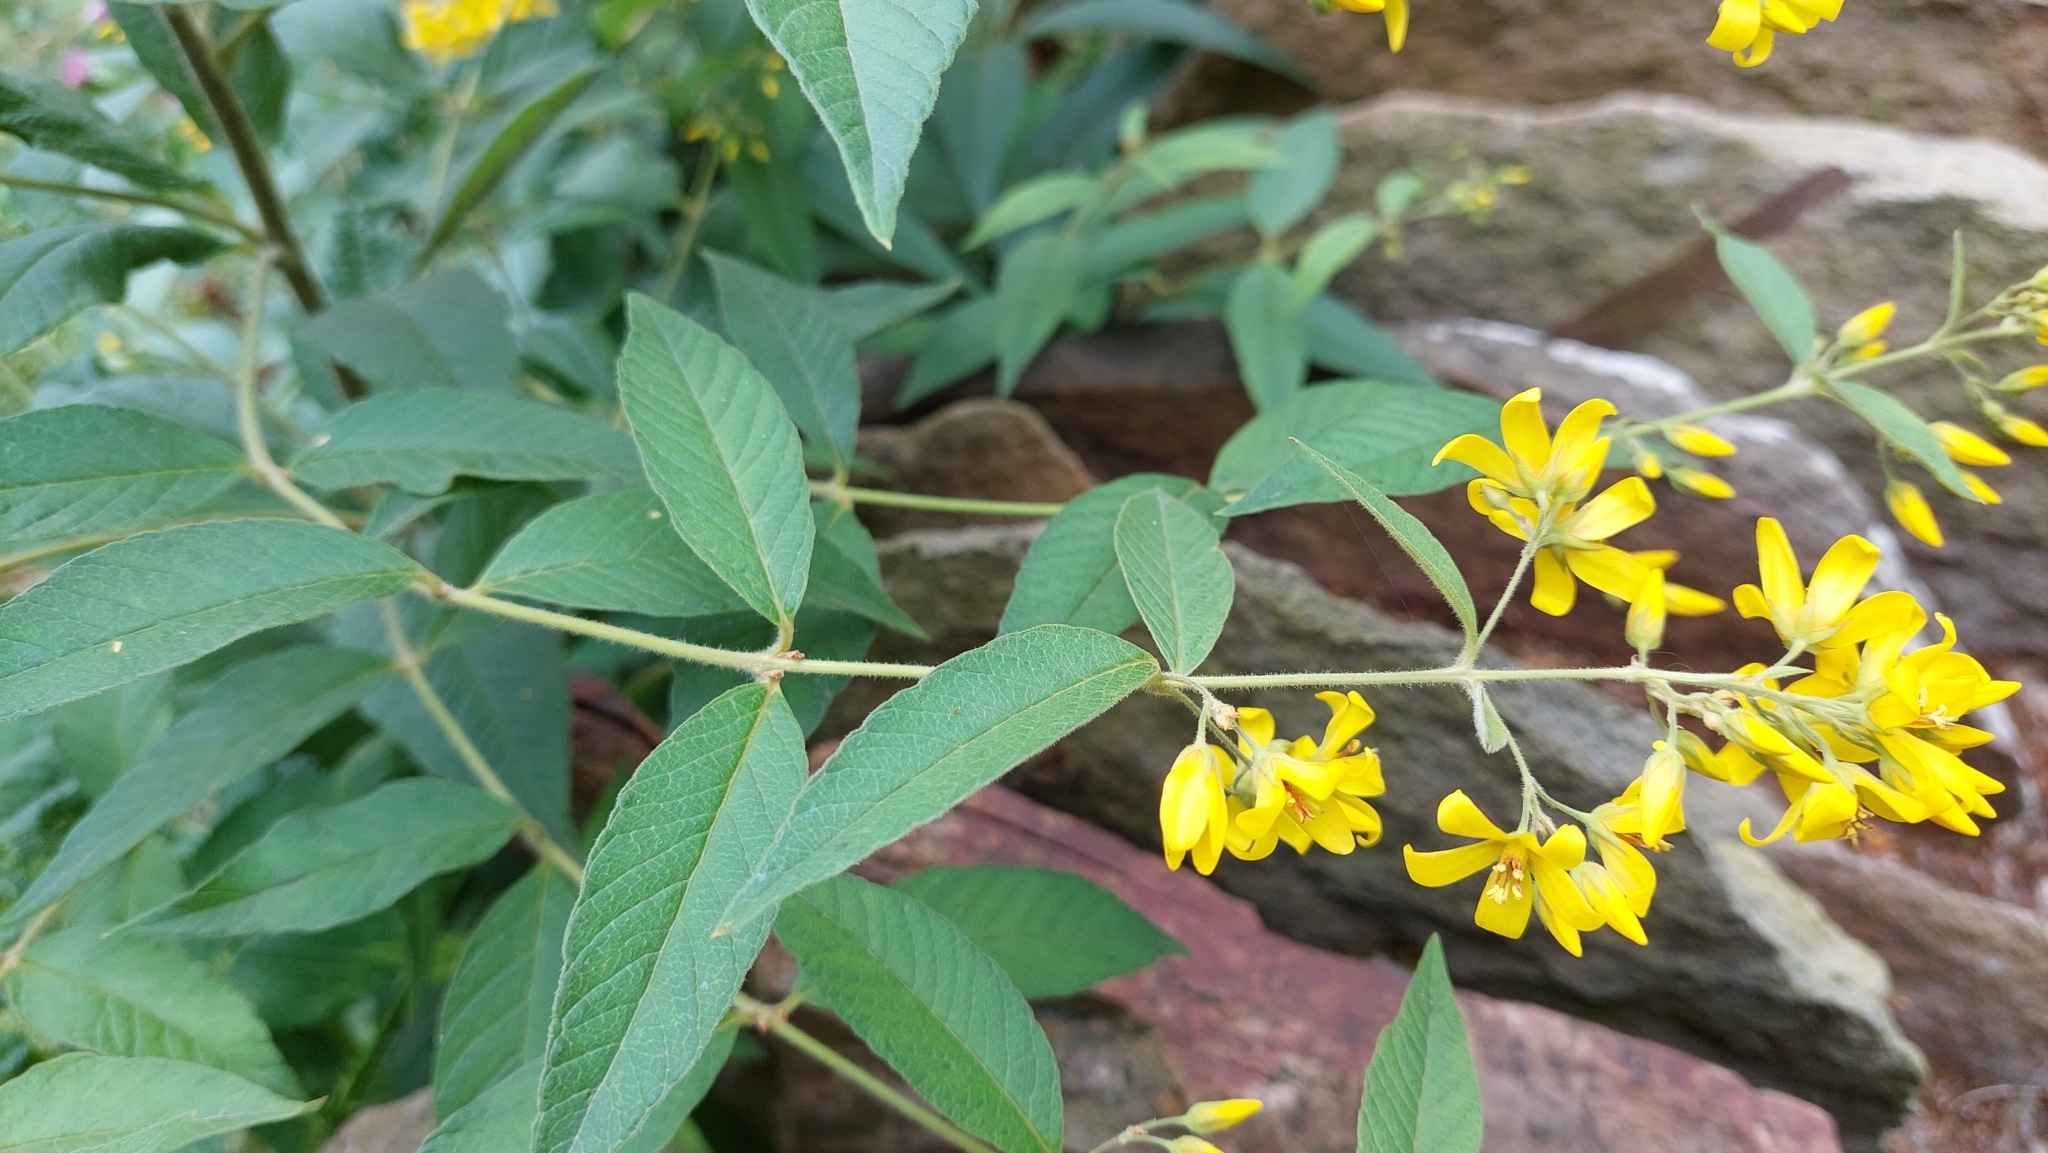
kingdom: Plantae
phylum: Tracheophyta
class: Magnoliopsida
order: Ericales
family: Primulaceae
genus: Lysimachia
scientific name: Lysimachia vulgaris
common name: Yellow loosestrife
